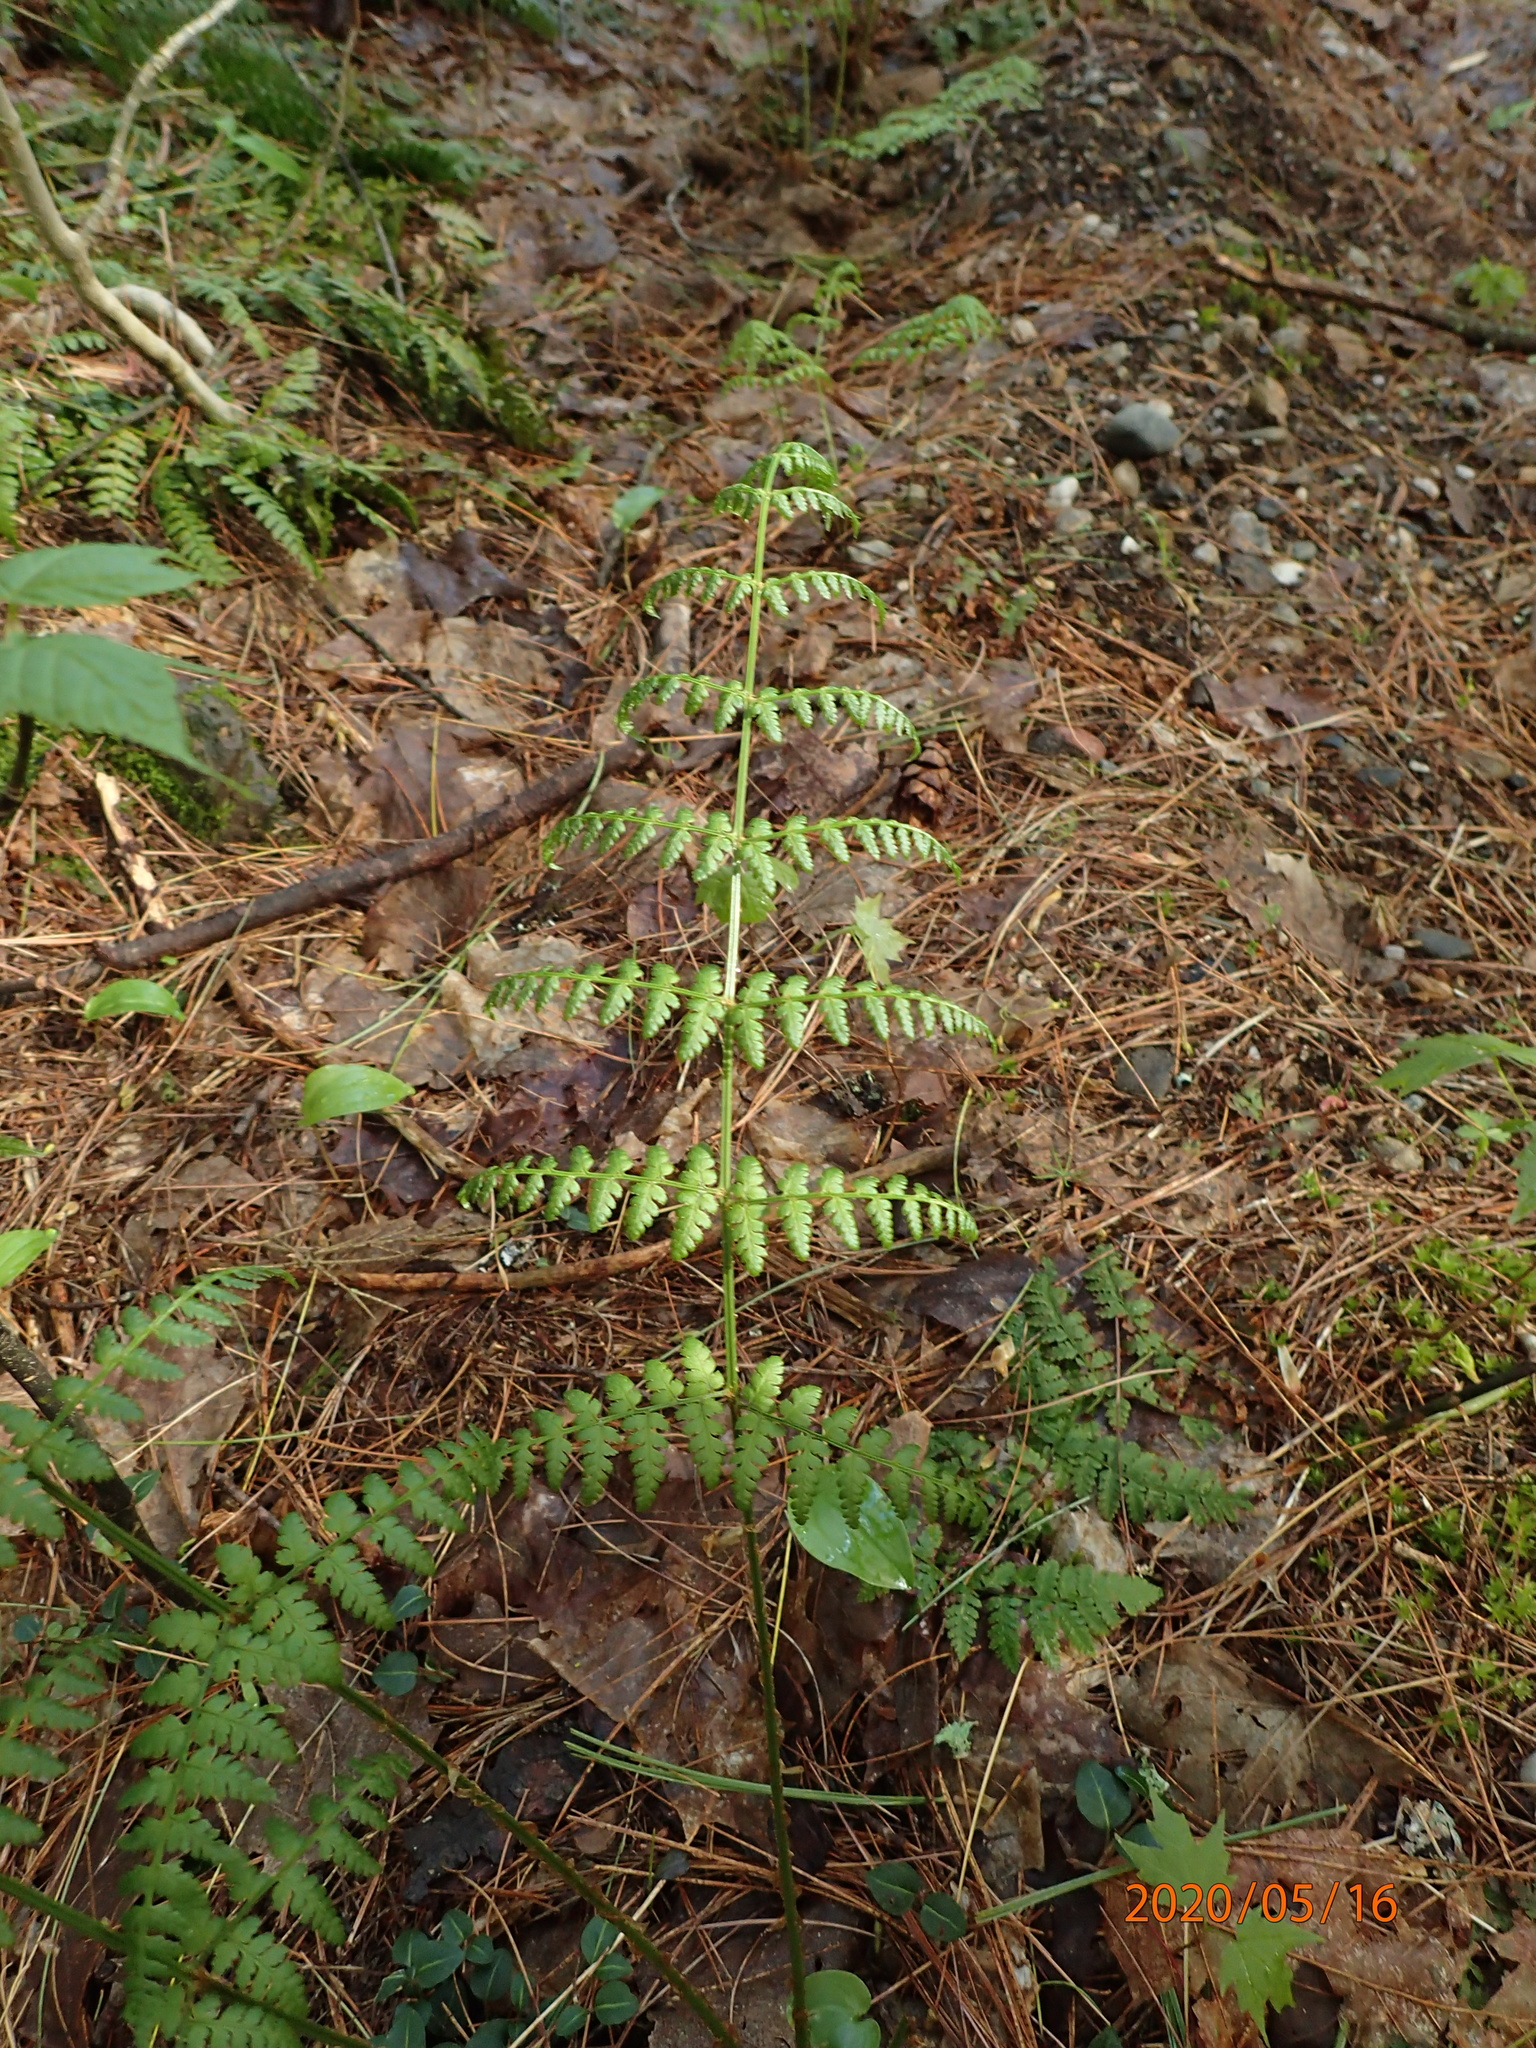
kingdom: Plantae
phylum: Tracheophyta
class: Polypodiopsida
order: Polypodiales
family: Dryopteridaceae
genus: Dryopteris
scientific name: Dryopteris intermedia
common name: Evergreen wood fern
